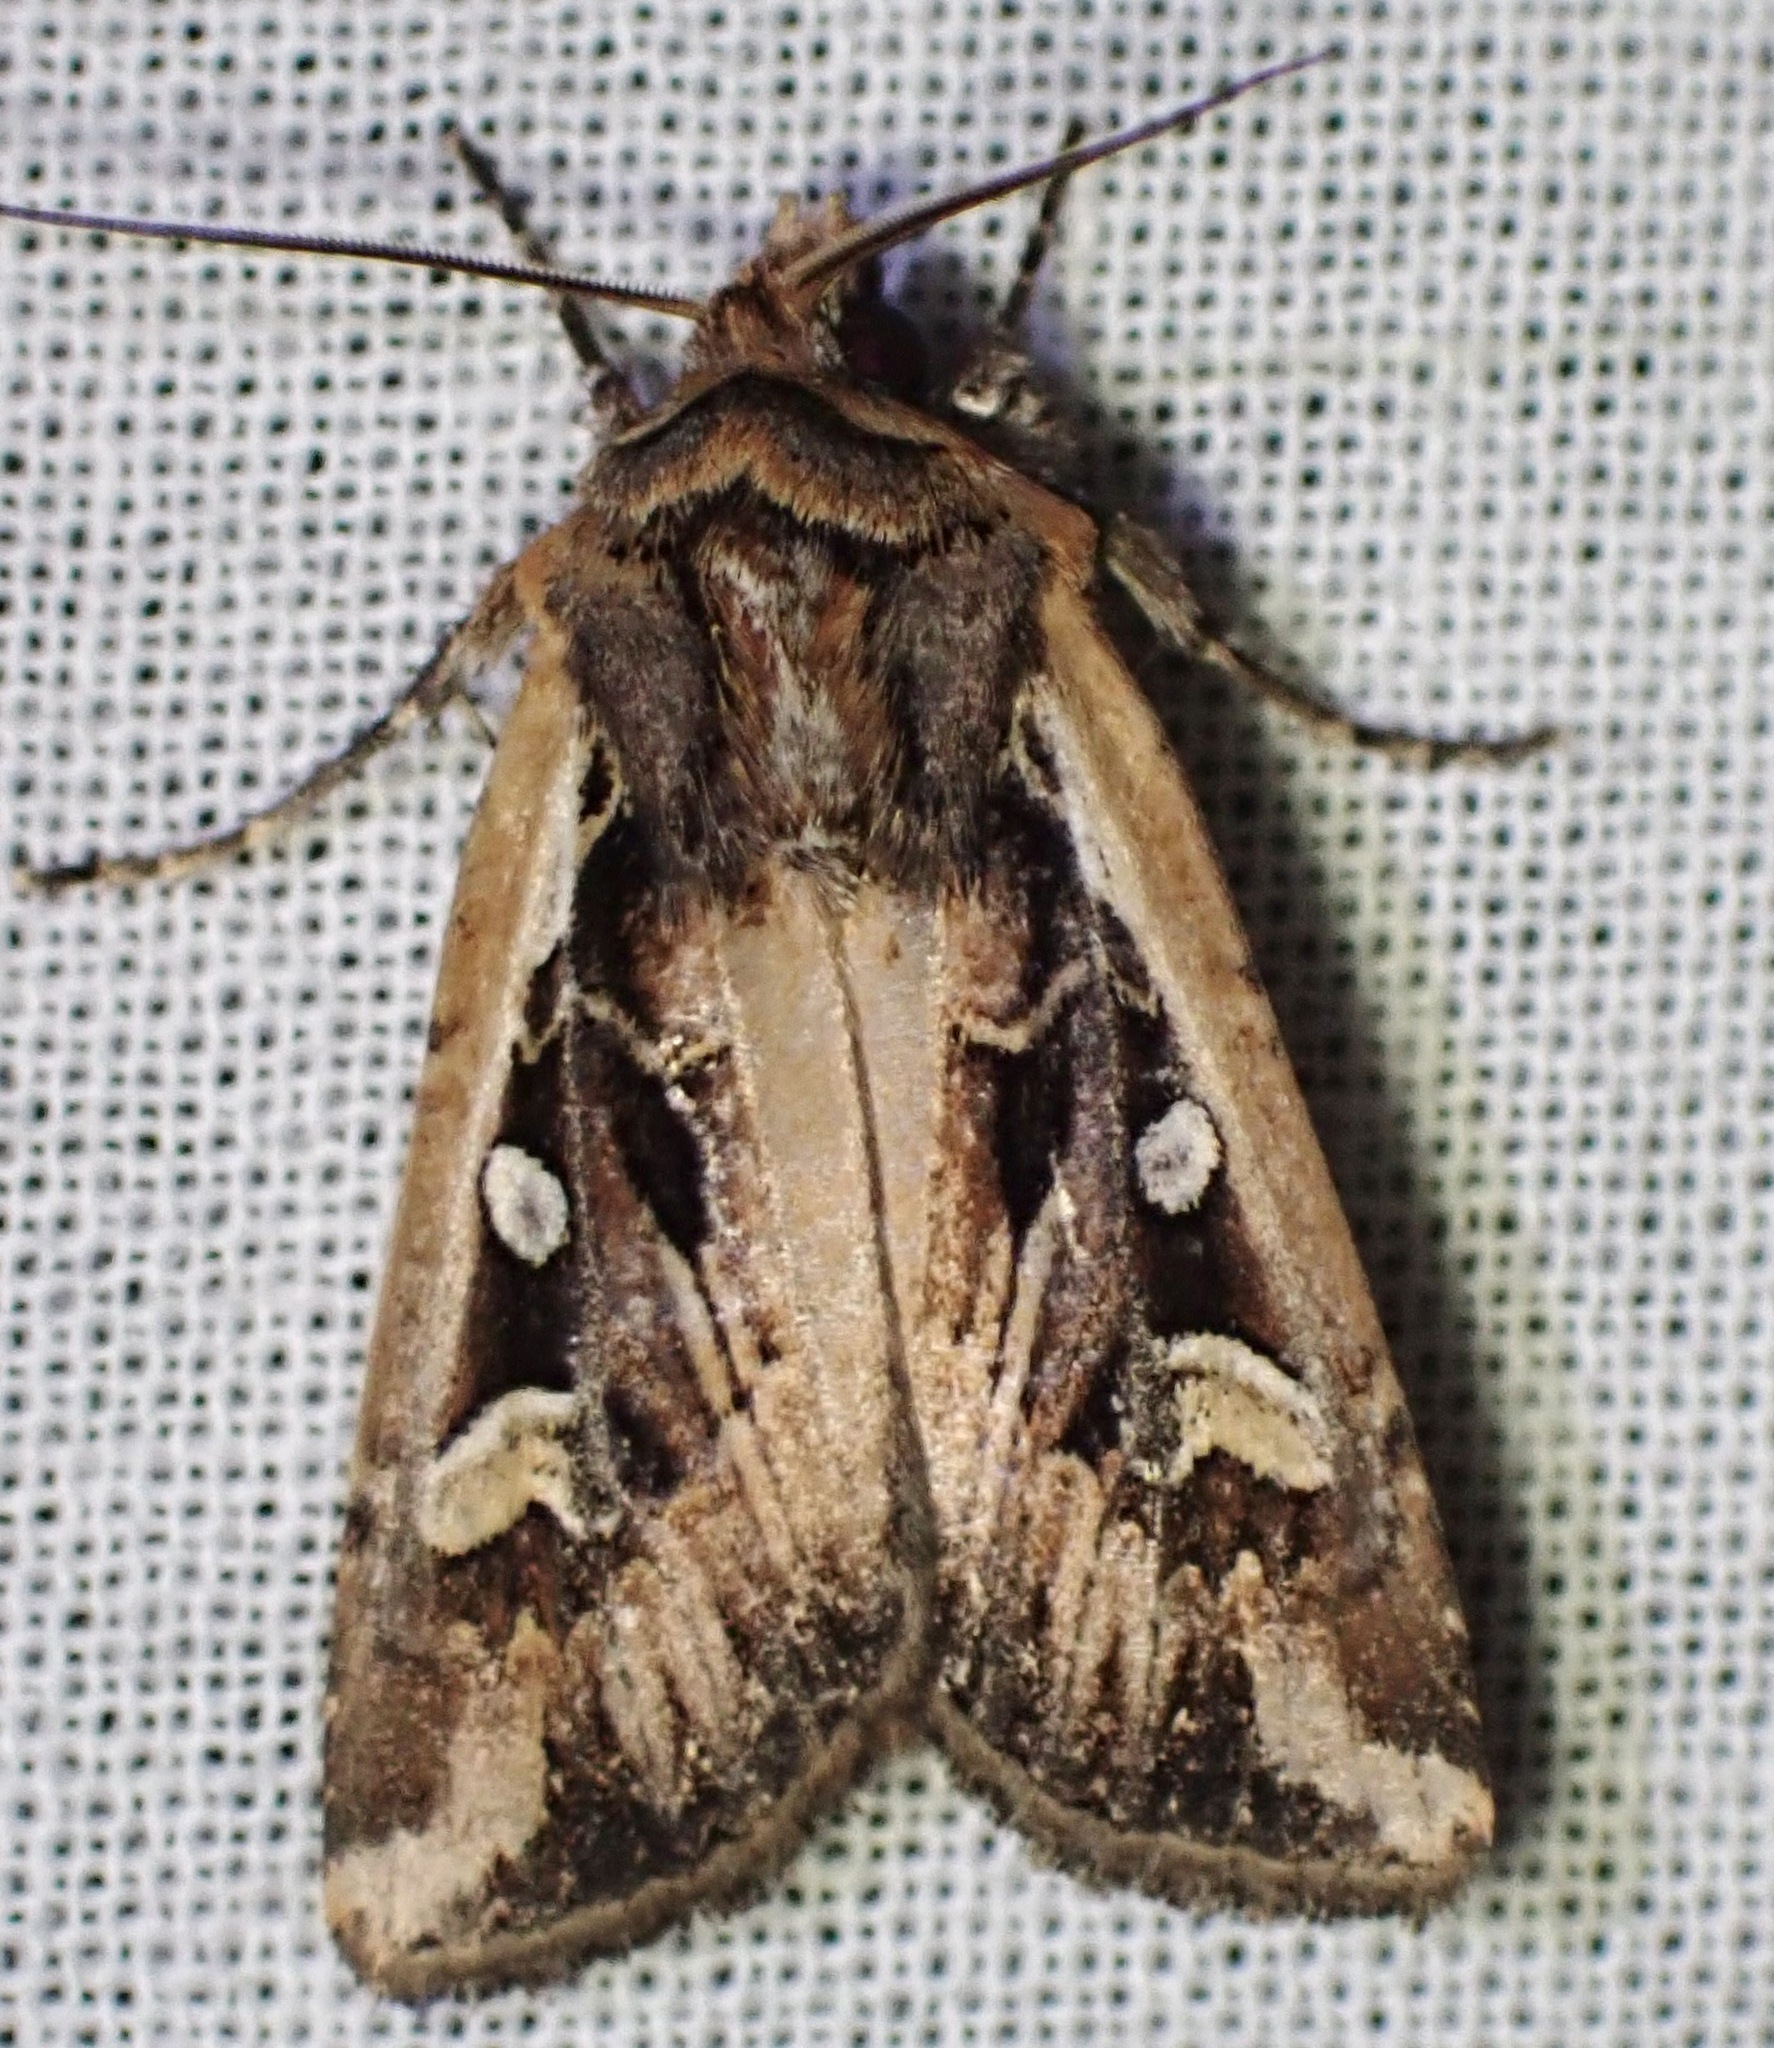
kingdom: Animalia
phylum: Arthropoda
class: Insecta
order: Lepidoptera
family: Noctuidae
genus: Euxoa
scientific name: Euxoa auxiliaris
